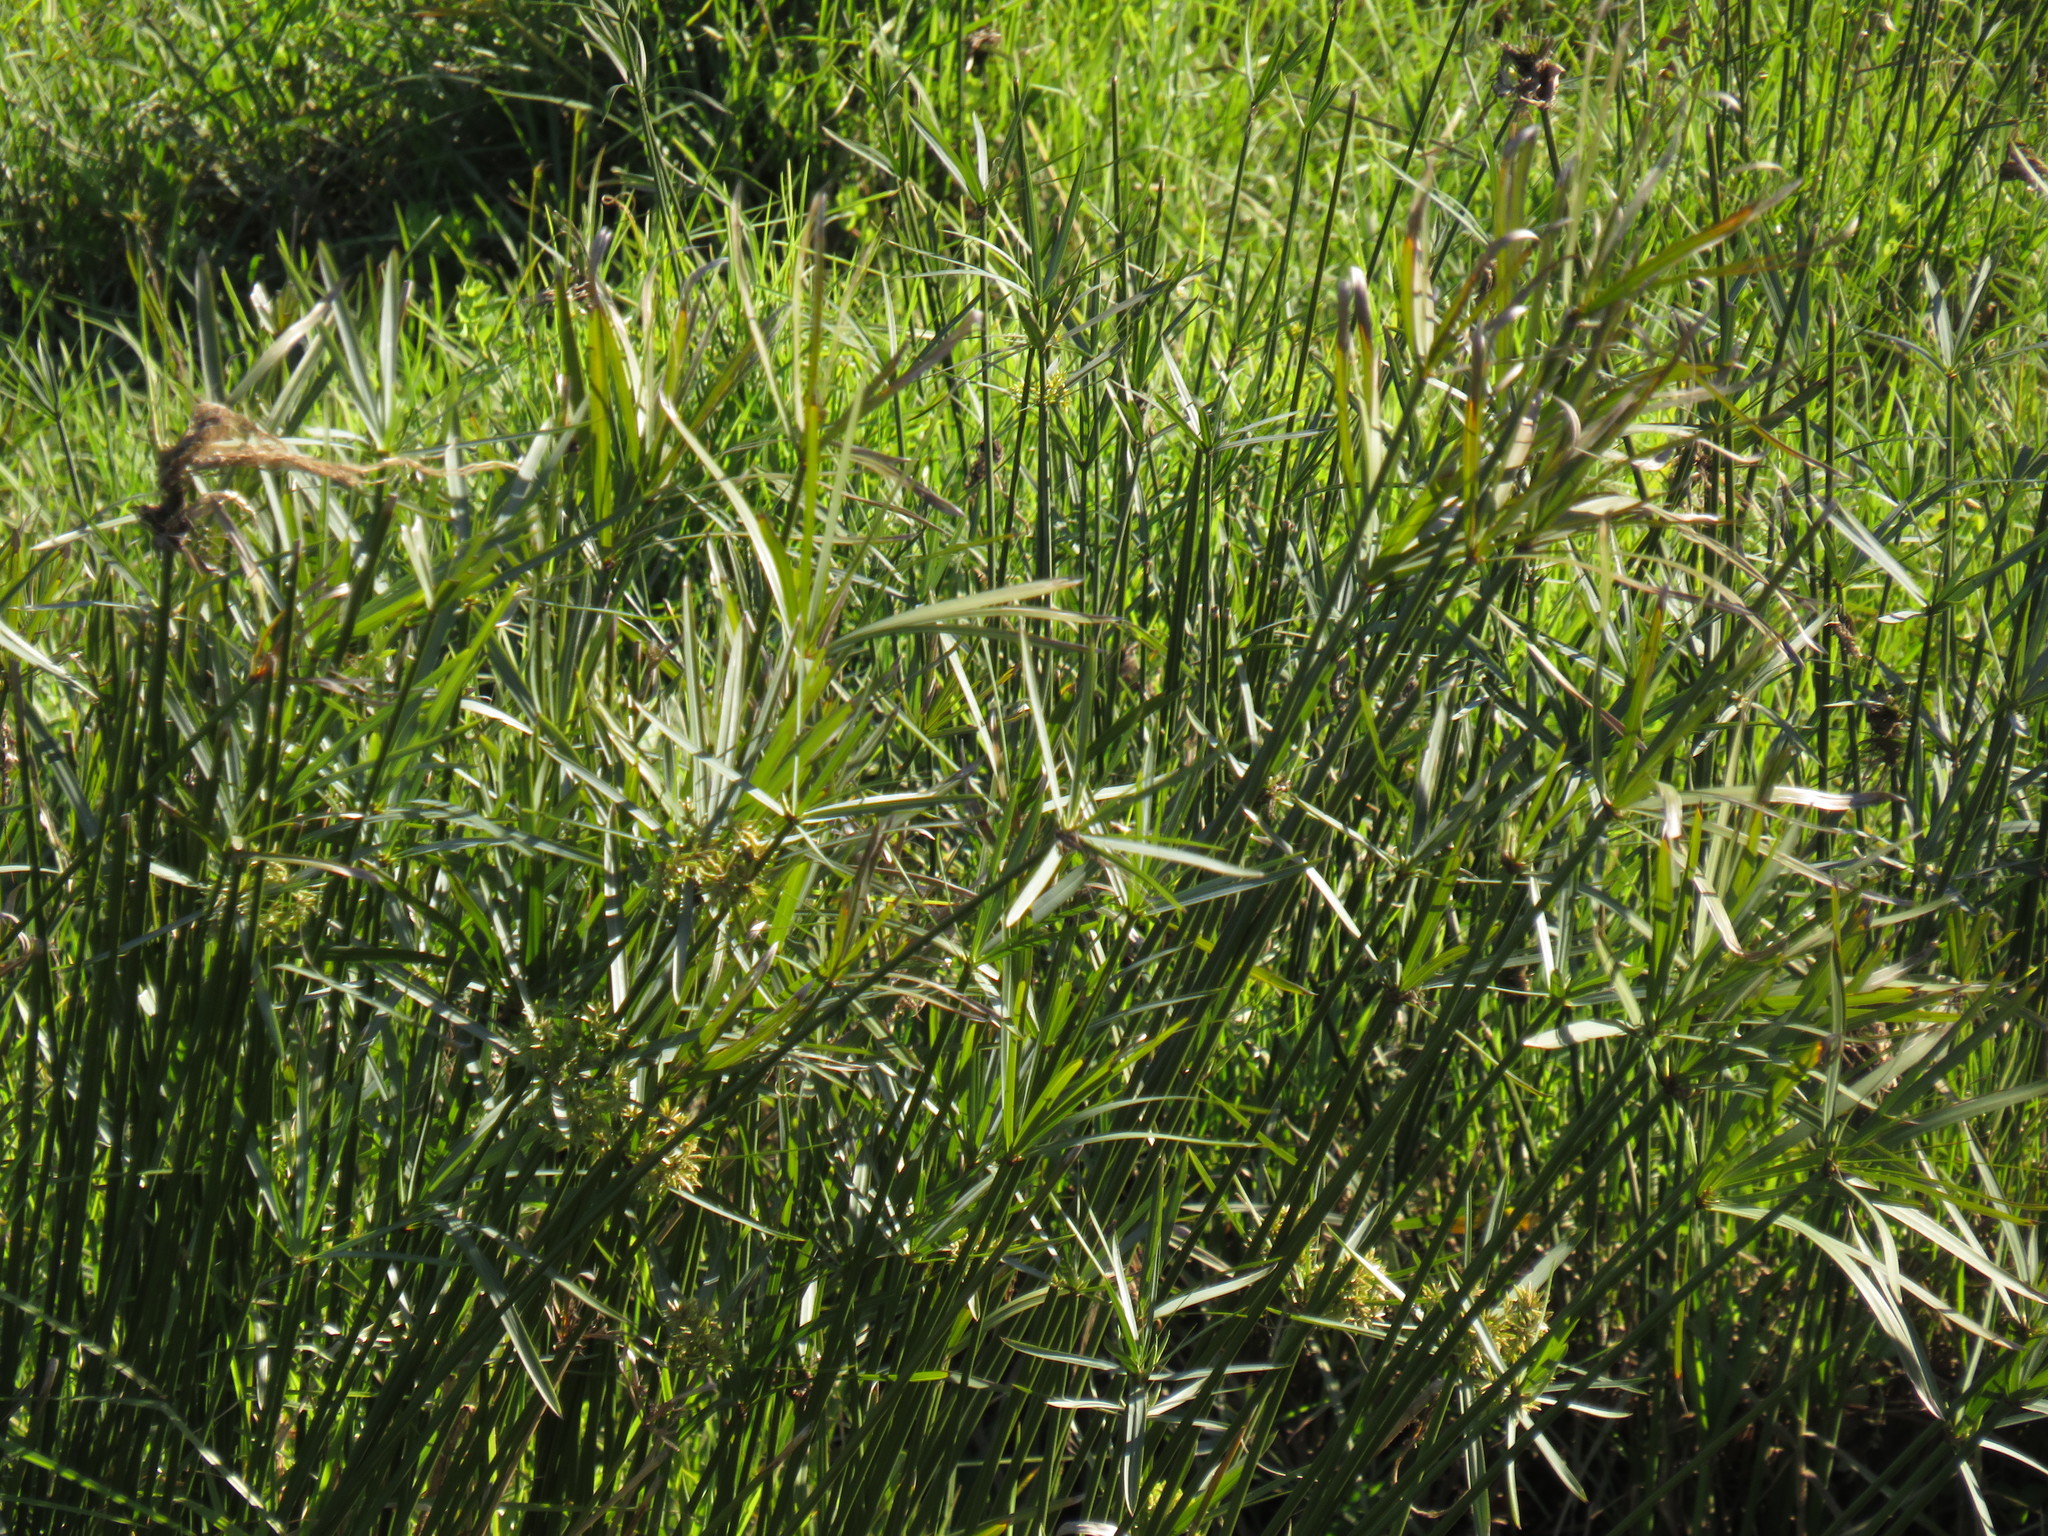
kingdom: Plantae
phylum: Tracheophyta
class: Liliopsida
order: Poales
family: Cyperaceae
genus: Cyperus
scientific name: Cyperus textilis
